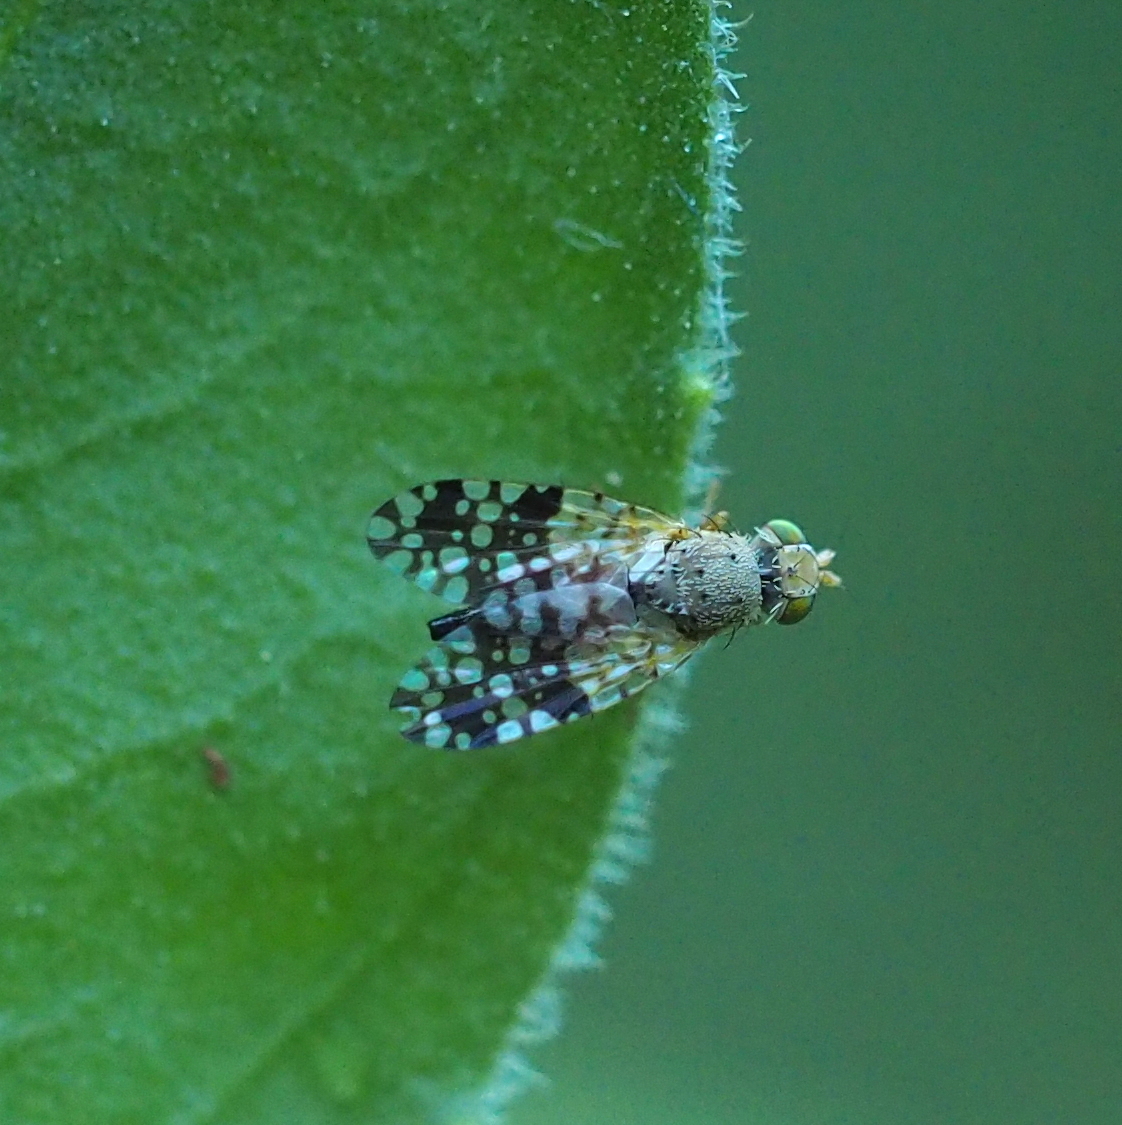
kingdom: Animalia
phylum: Arthropoda
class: Insecta
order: Diptera
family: Tephritidae
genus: Tephritis
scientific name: Tephritis praecox
